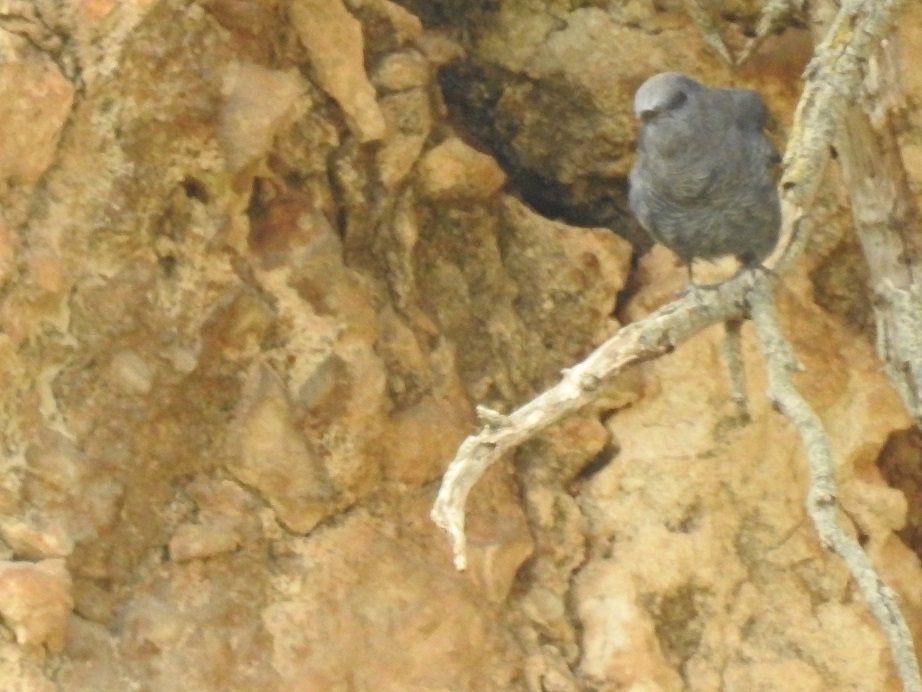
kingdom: Animalia
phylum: Chordata
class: Aves
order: Passeriformes
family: Muscicapidae
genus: Monticola
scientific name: Monticola solitarius
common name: Blue rock thrush
